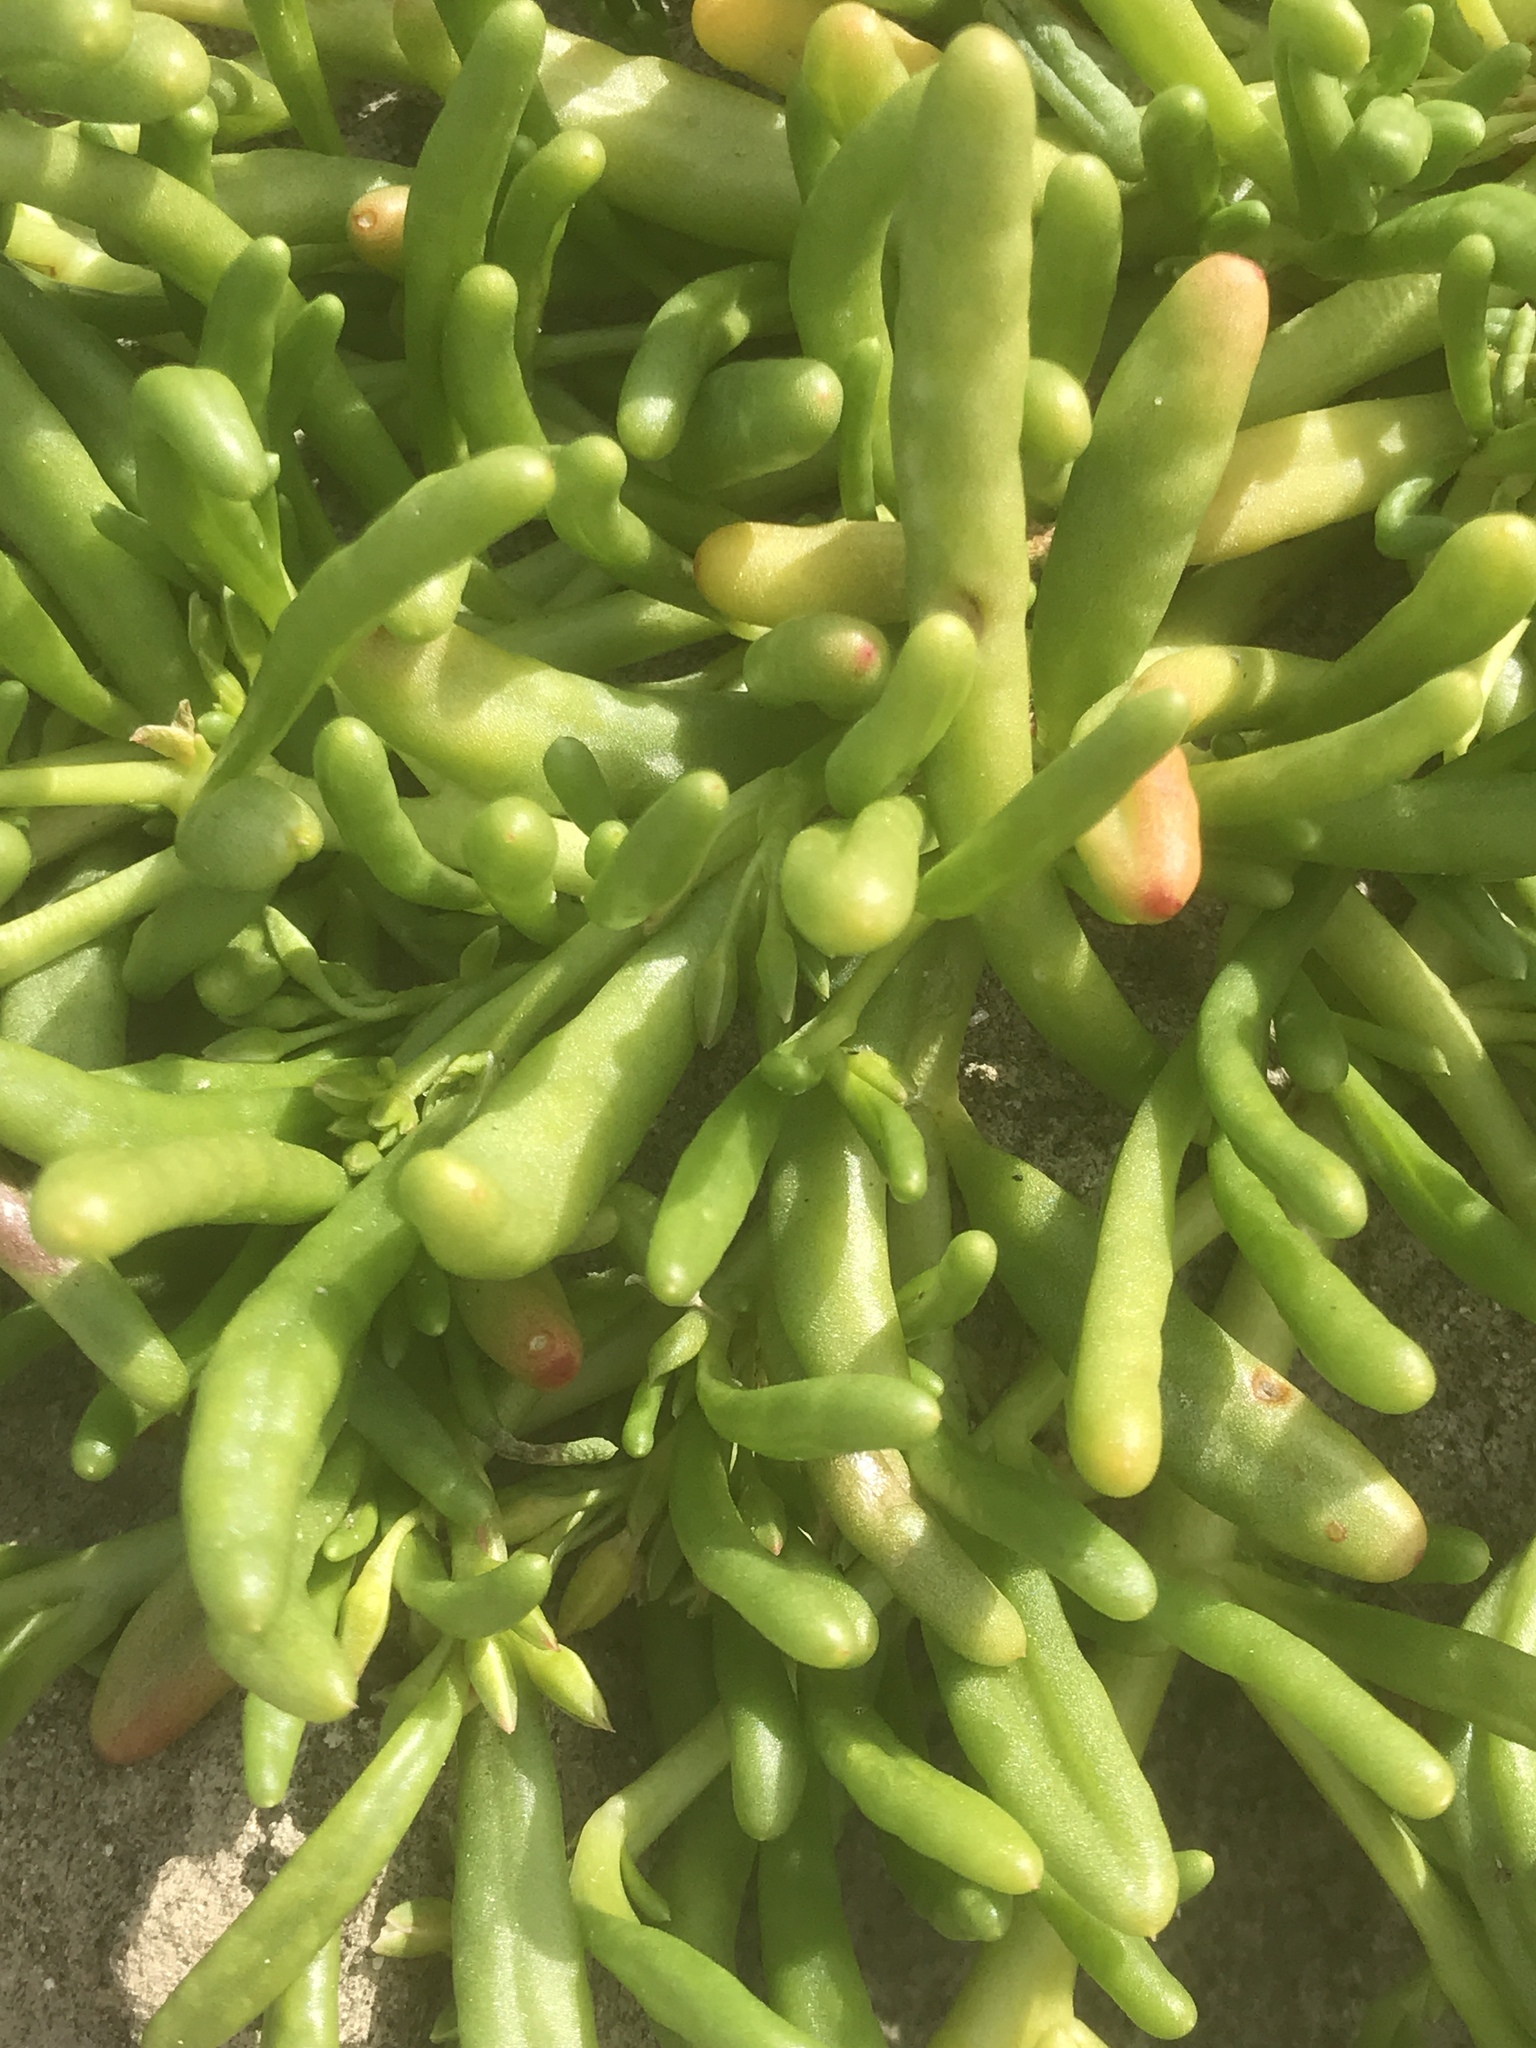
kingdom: Plantae
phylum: Tracheophyta
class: Magnoliopsida
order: Caryophyllales
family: Montiaceae
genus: Thingia
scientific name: Thingia ambigua
